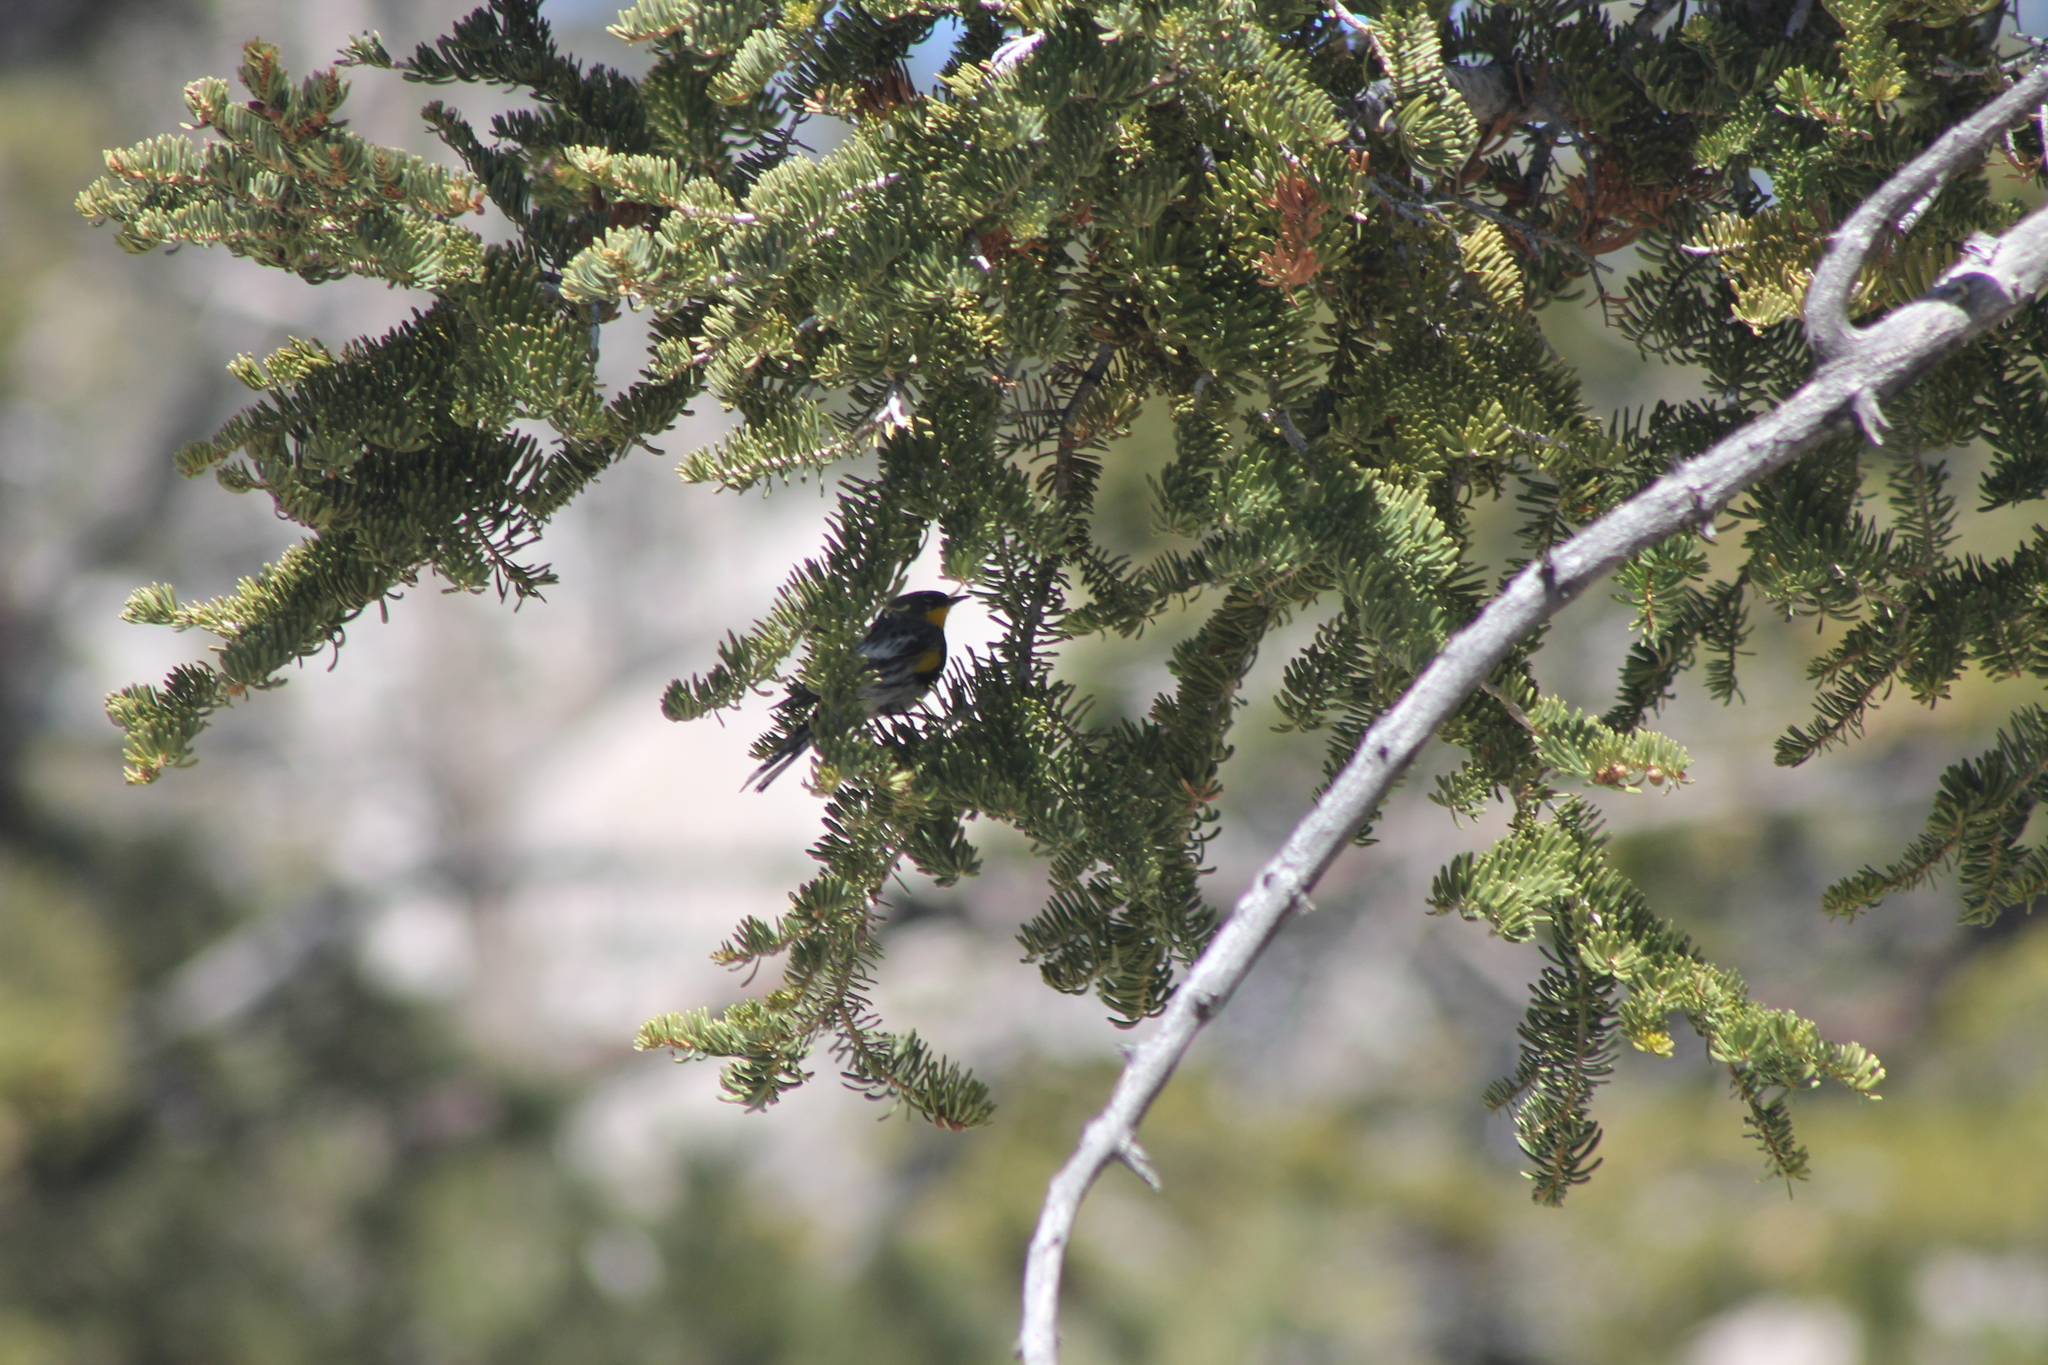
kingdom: Animalia
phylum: Chordata
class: Aves
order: Passeriformes
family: Parulidae
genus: Setophaga
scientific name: Setophaga auduboni
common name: Audubon's warbler
